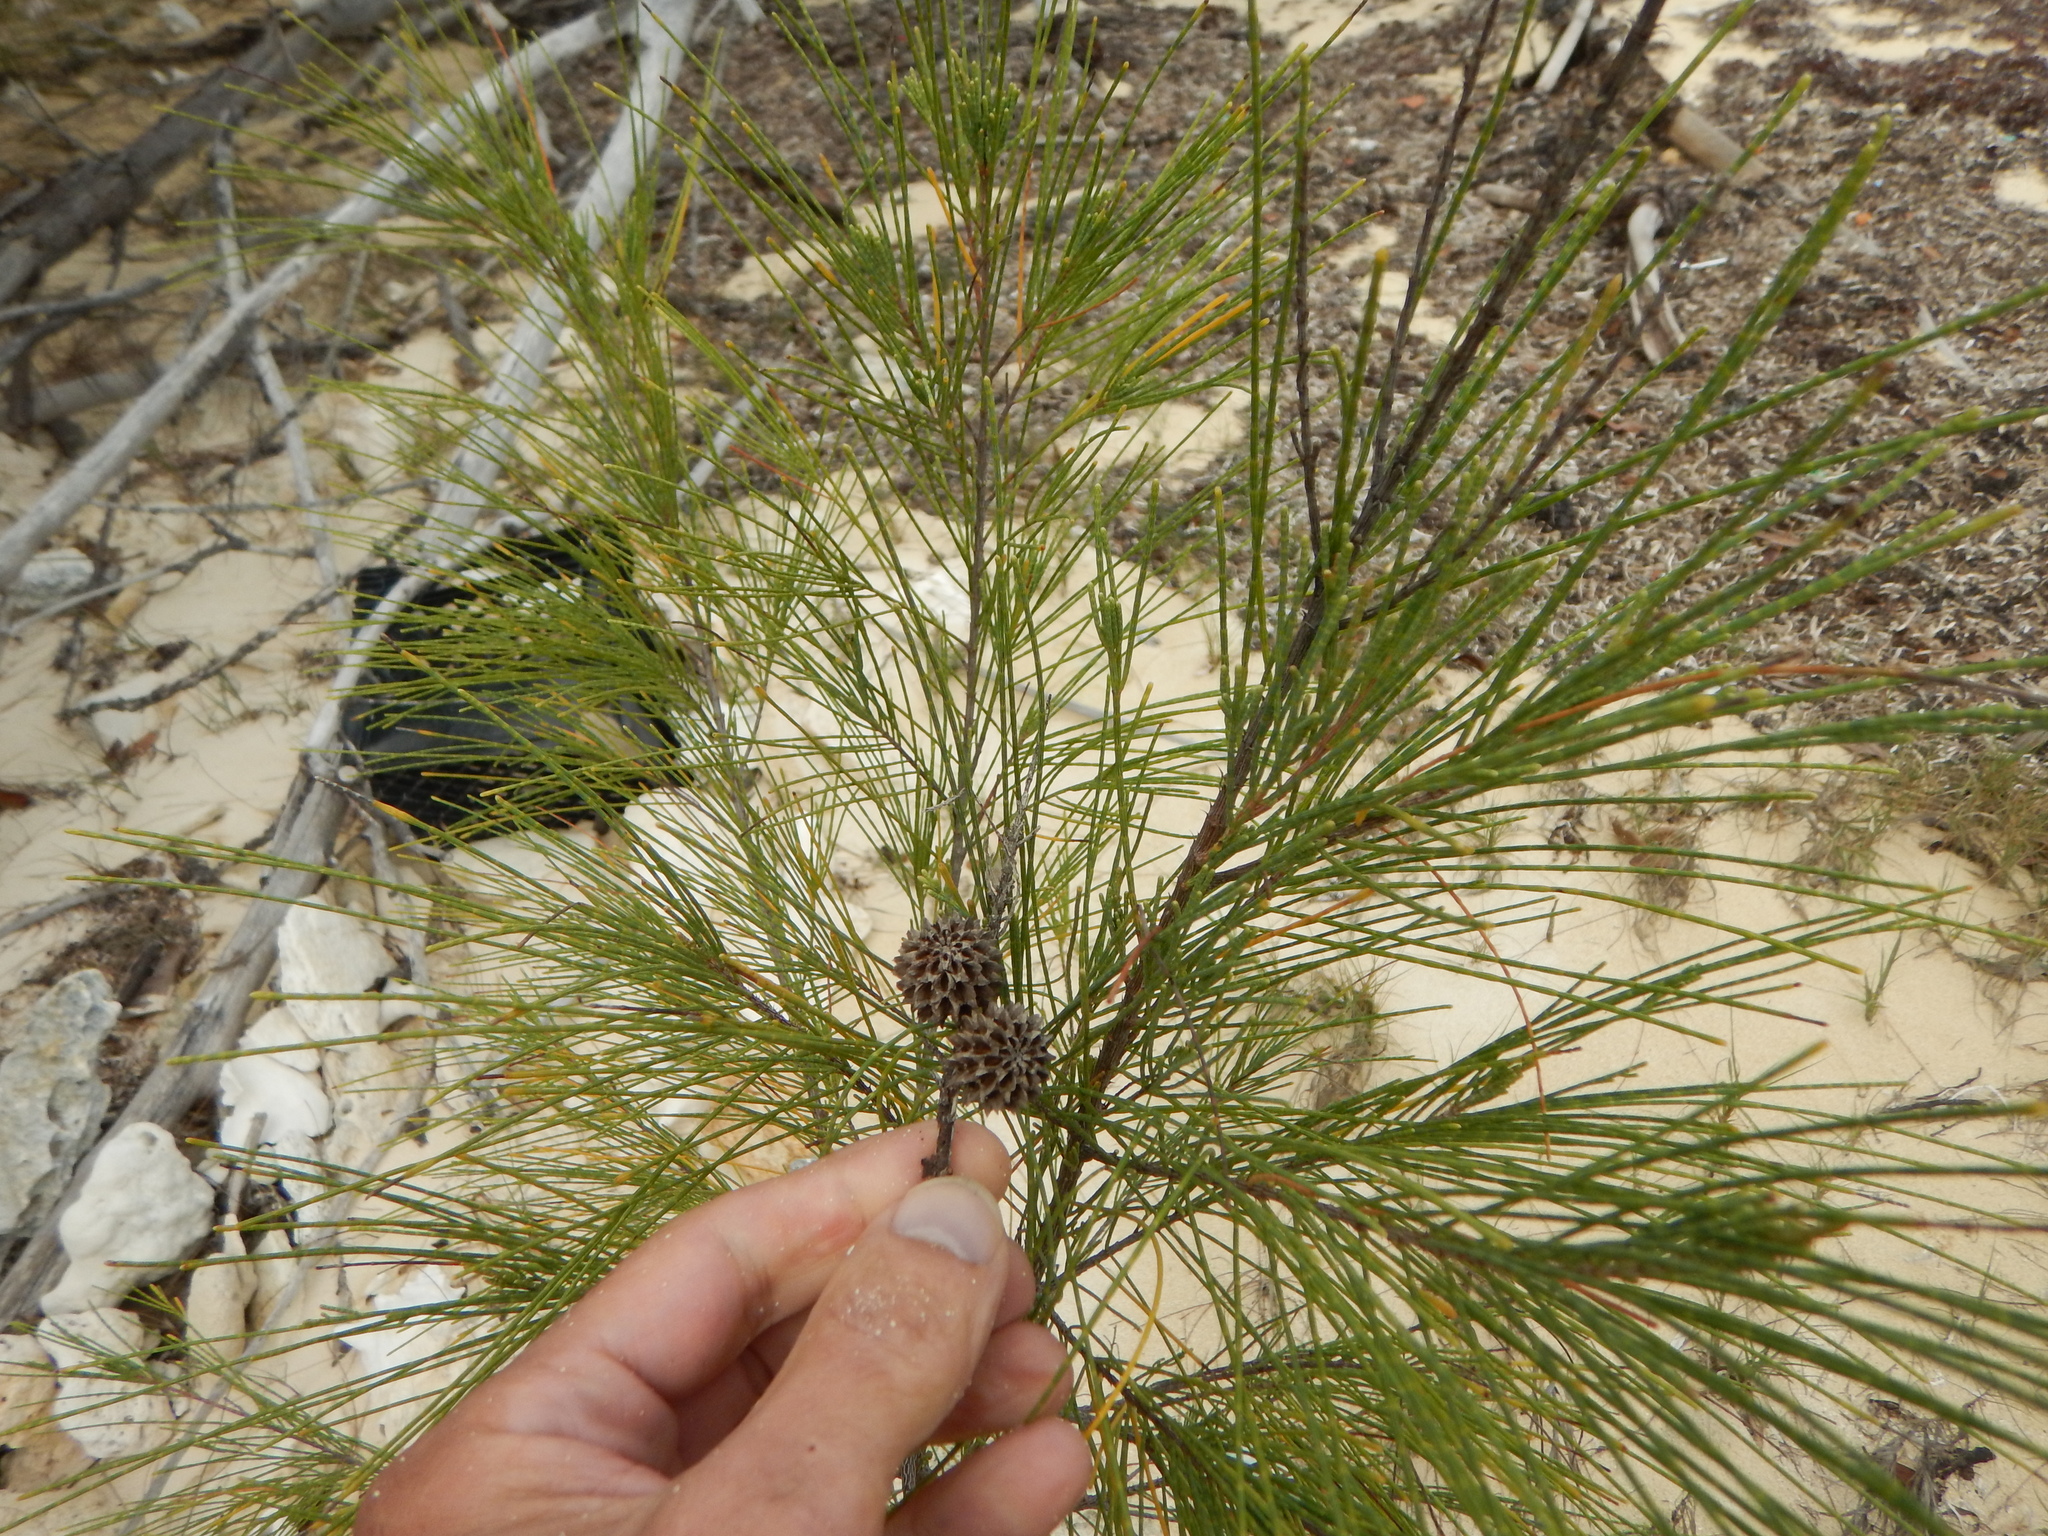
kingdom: Plantae
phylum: Tracheophyta
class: Magnoliopsida
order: Fagales
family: Casuarinaceae
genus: Casuarina
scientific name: Casuarina equisetifolia
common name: Beach sheoak
